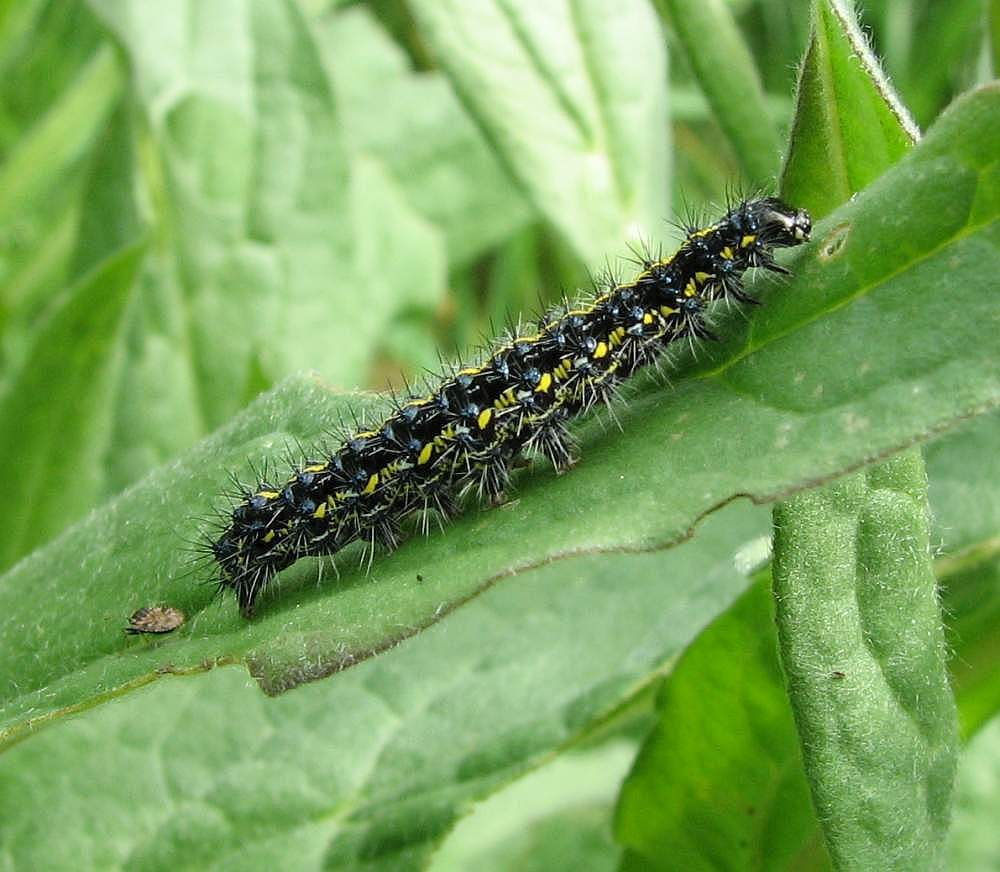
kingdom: Animalia
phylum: Arthropoda
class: Insecta
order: Lepidoptera
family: Erebidae
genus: Haploa
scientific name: Haploa confusa
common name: Confused haploa moth
